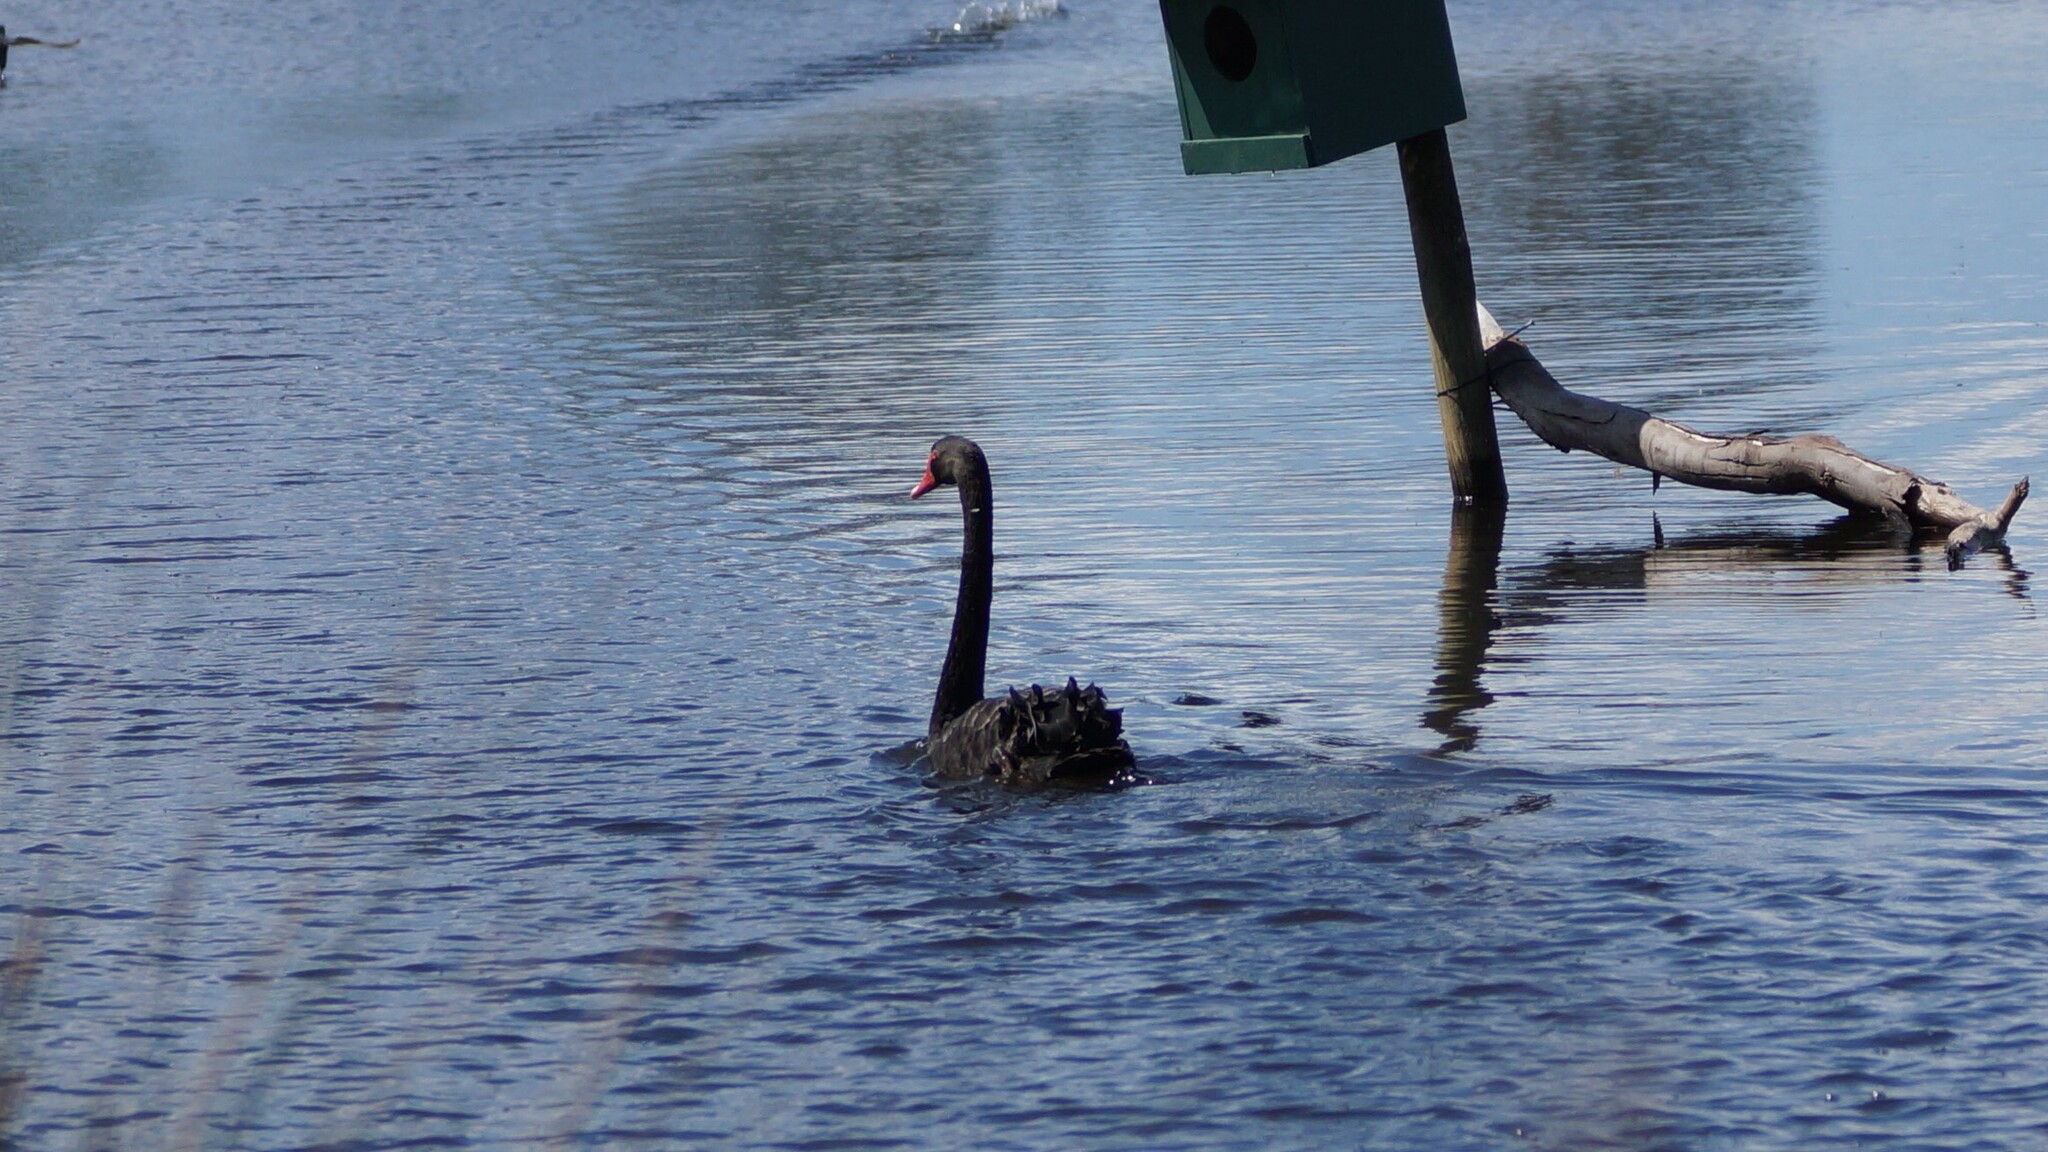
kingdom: Animalia
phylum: Chordata
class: Aves
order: Anseriformes
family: Anatidae
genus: Cygnus
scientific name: Cygnus atratus
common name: Black swan
